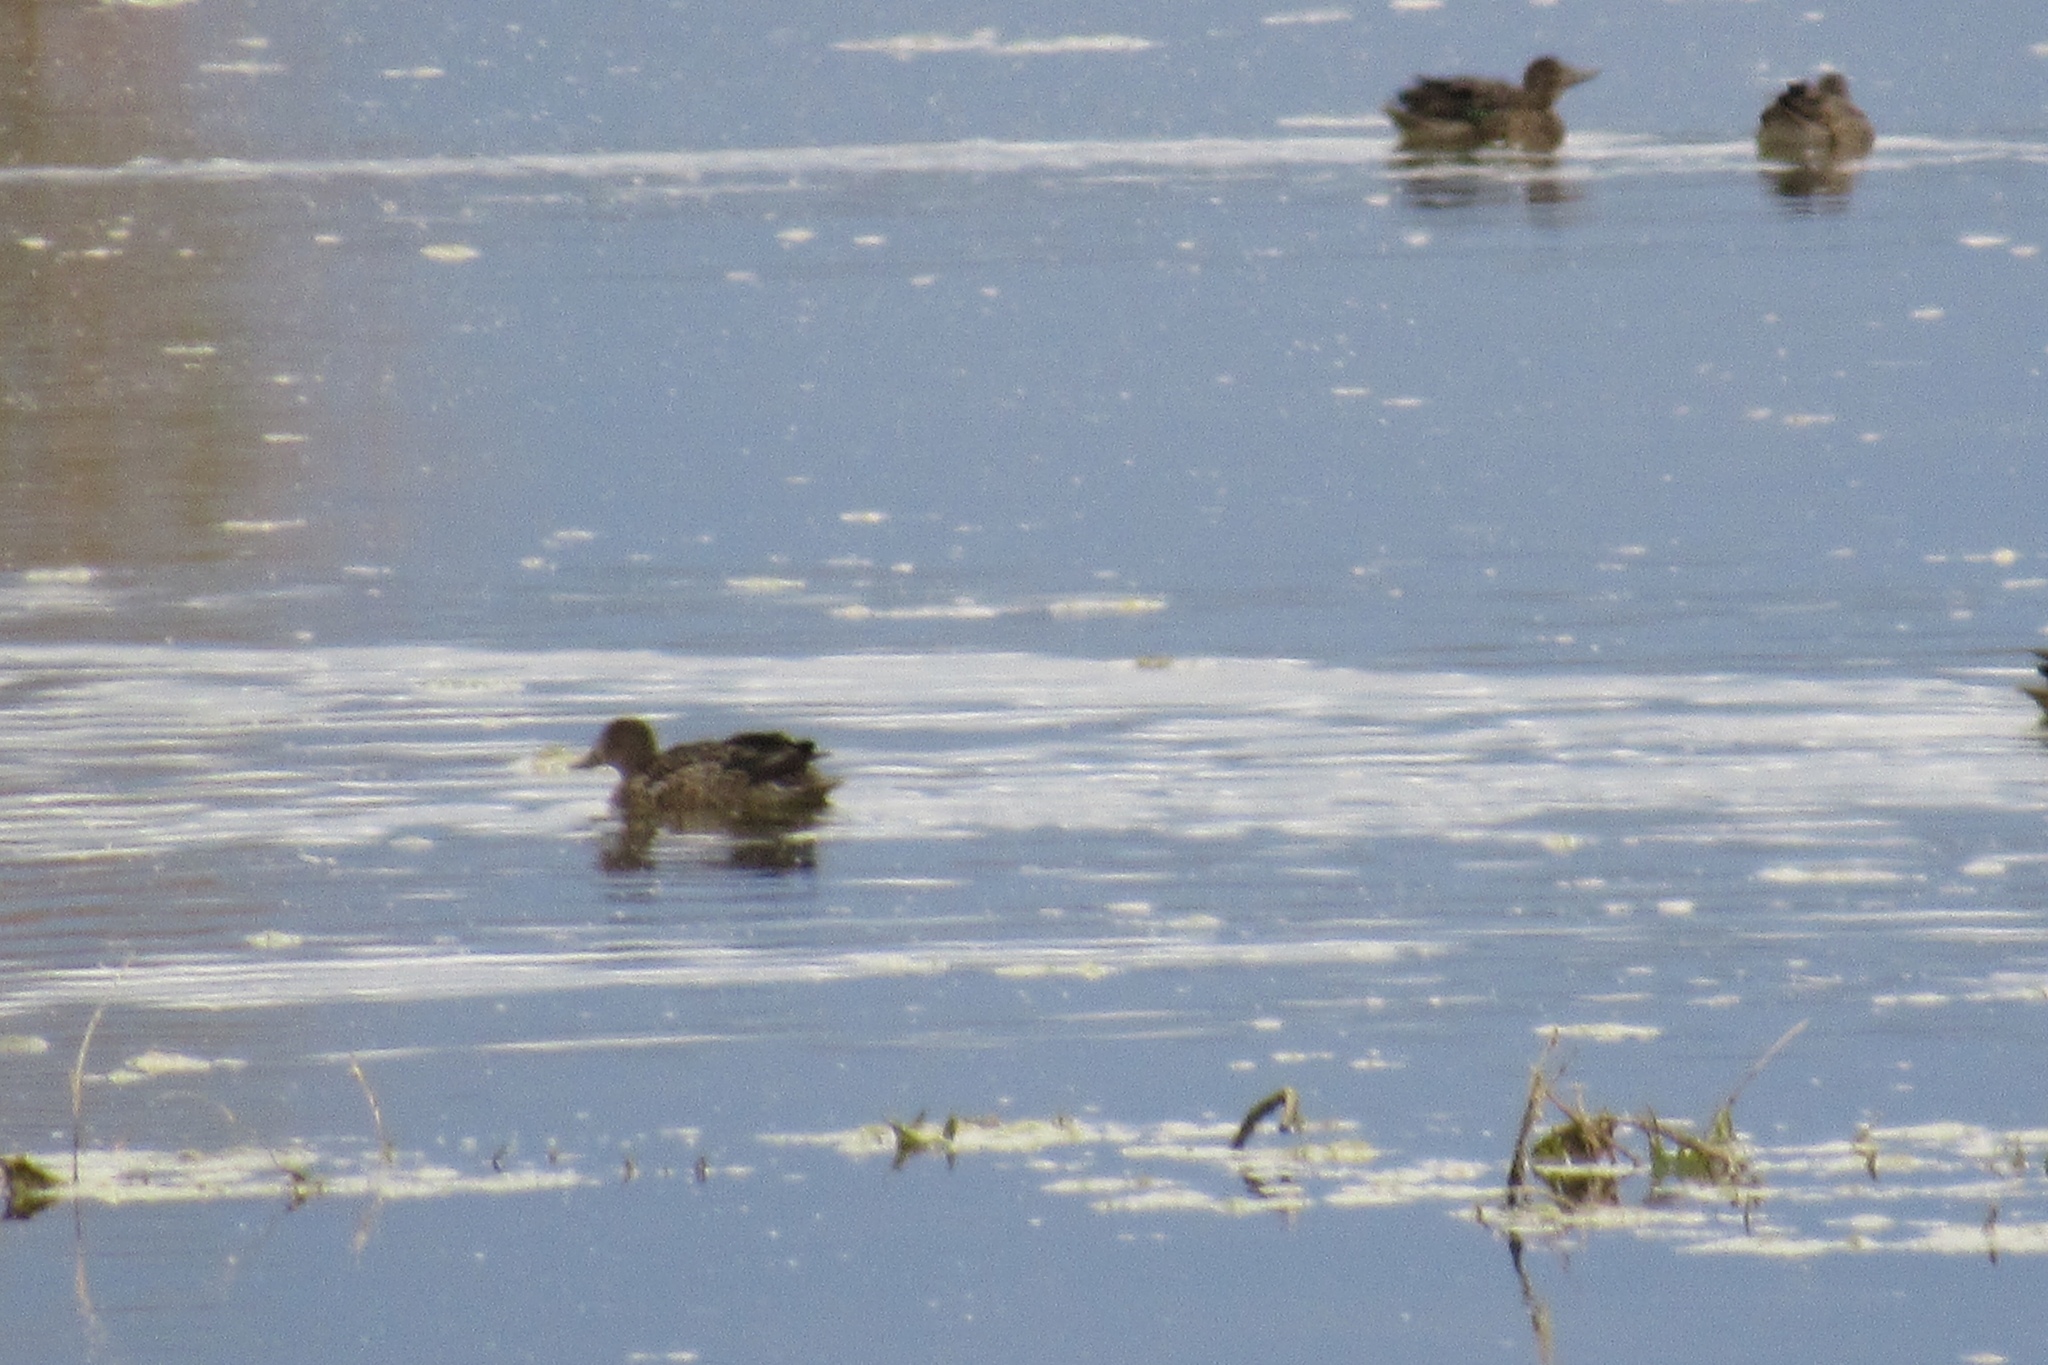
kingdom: Animalia
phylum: Chordata
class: Aves
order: Anseriformes
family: Anatidae
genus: Spatula
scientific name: Spatula cyanoptera
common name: Cinnamon teal
